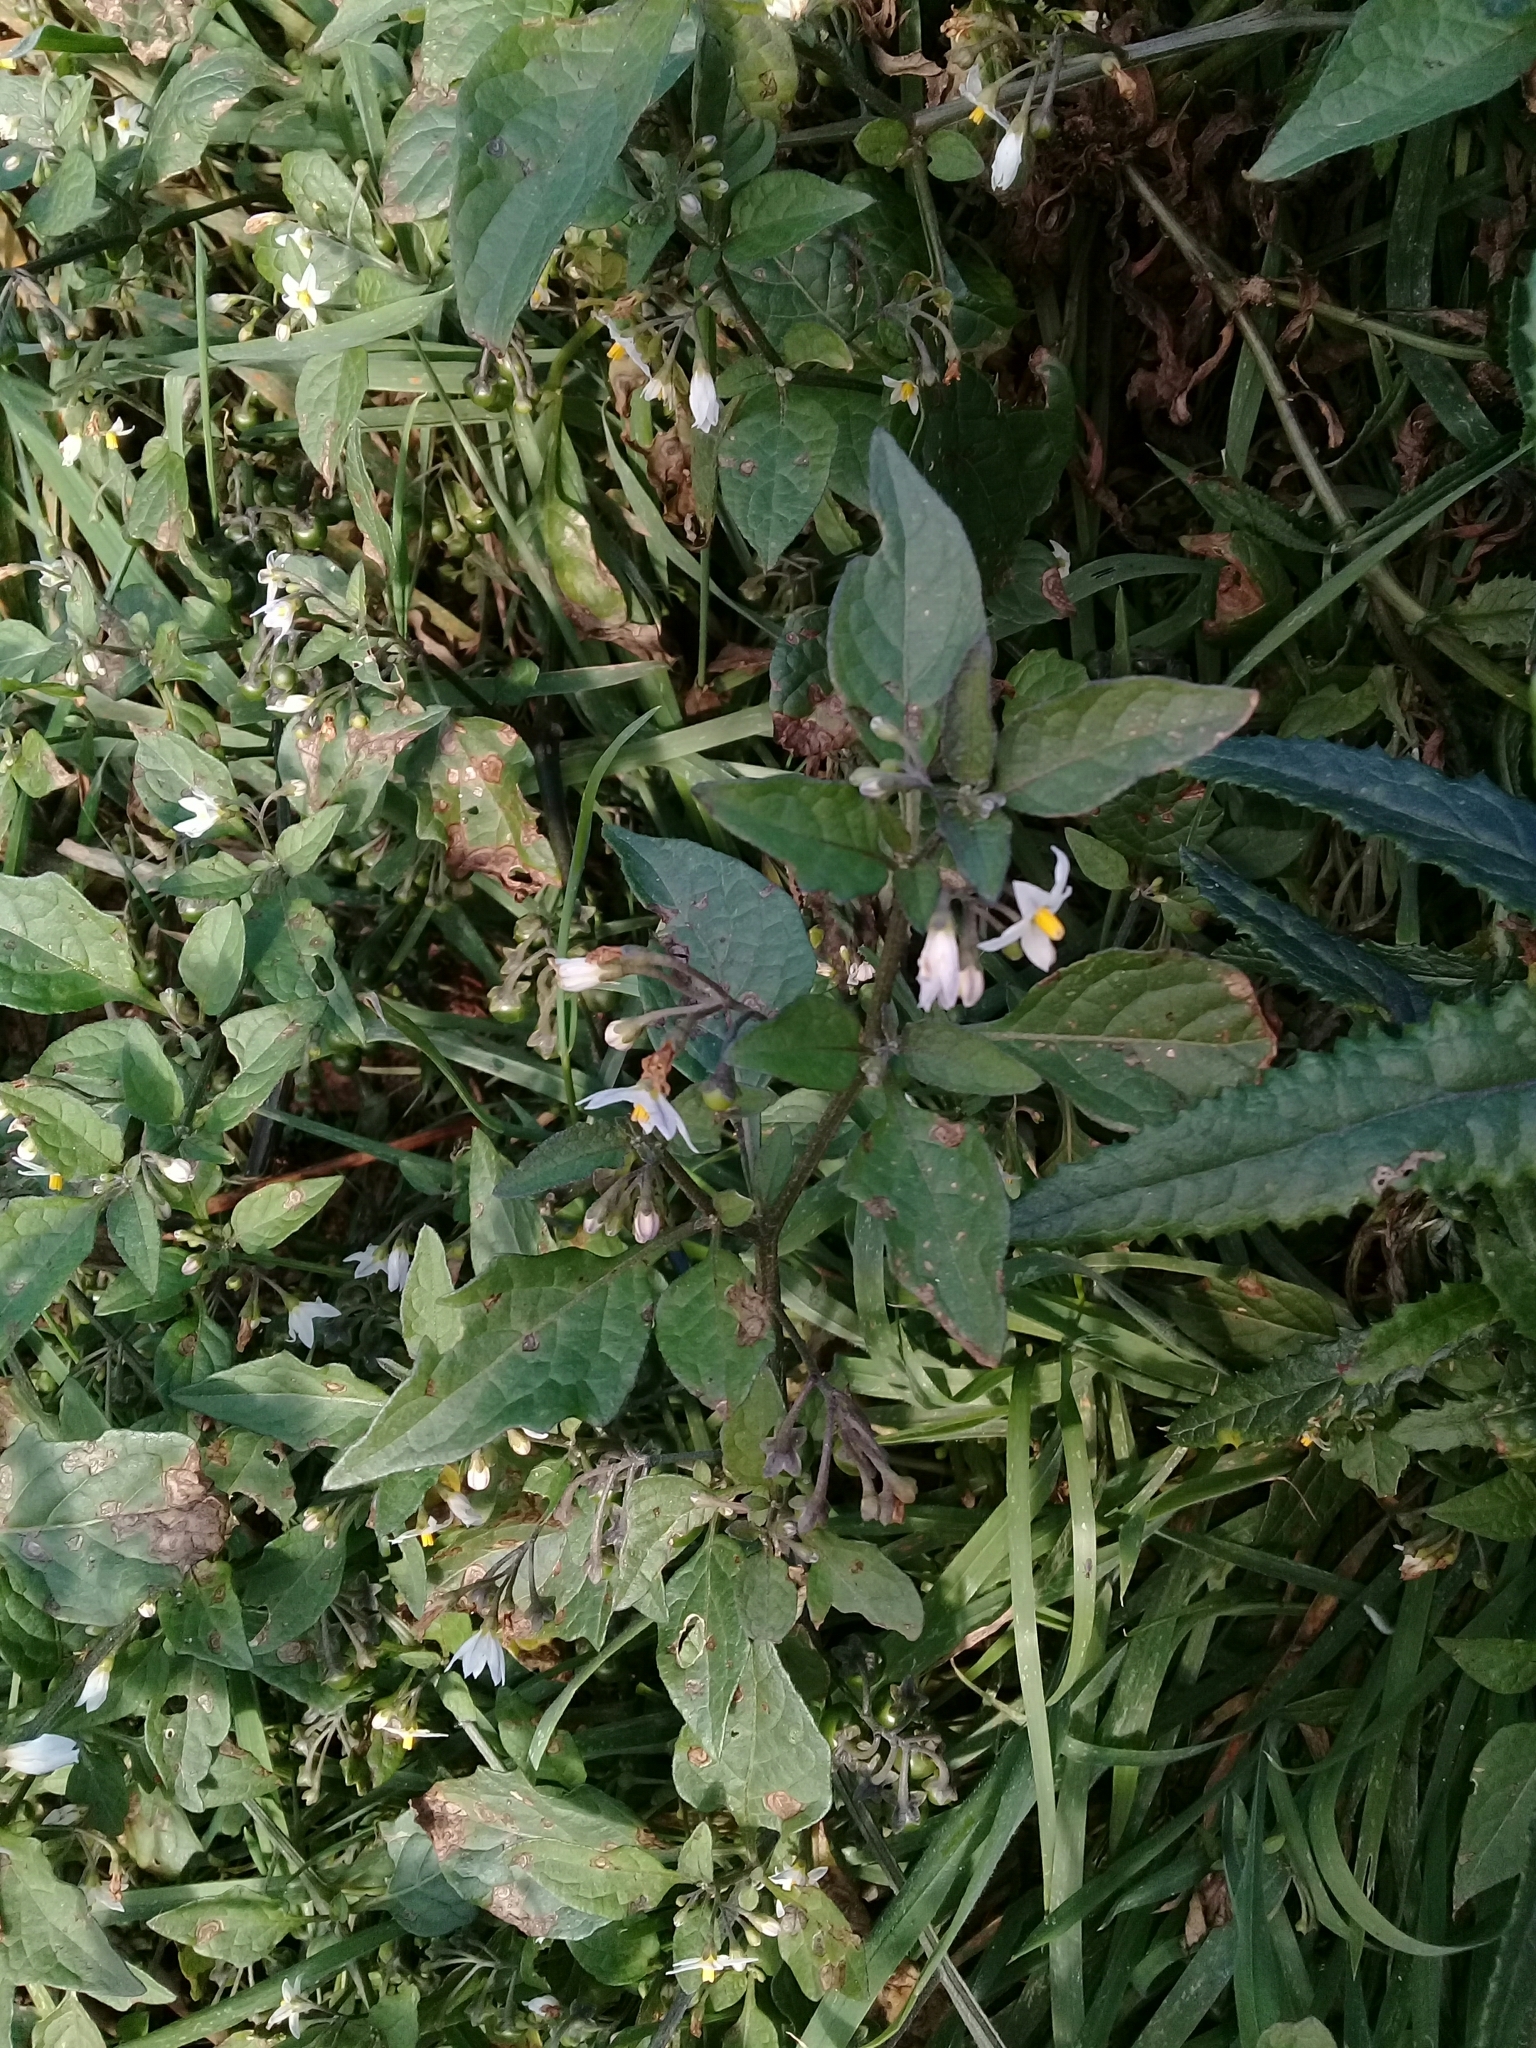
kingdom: Plantae
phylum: Tracheophyta
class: Magnoliopsida
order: Solanales
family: Solanaceae
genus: Solanum
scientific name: Solanum nigrum
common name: Black nightshade
